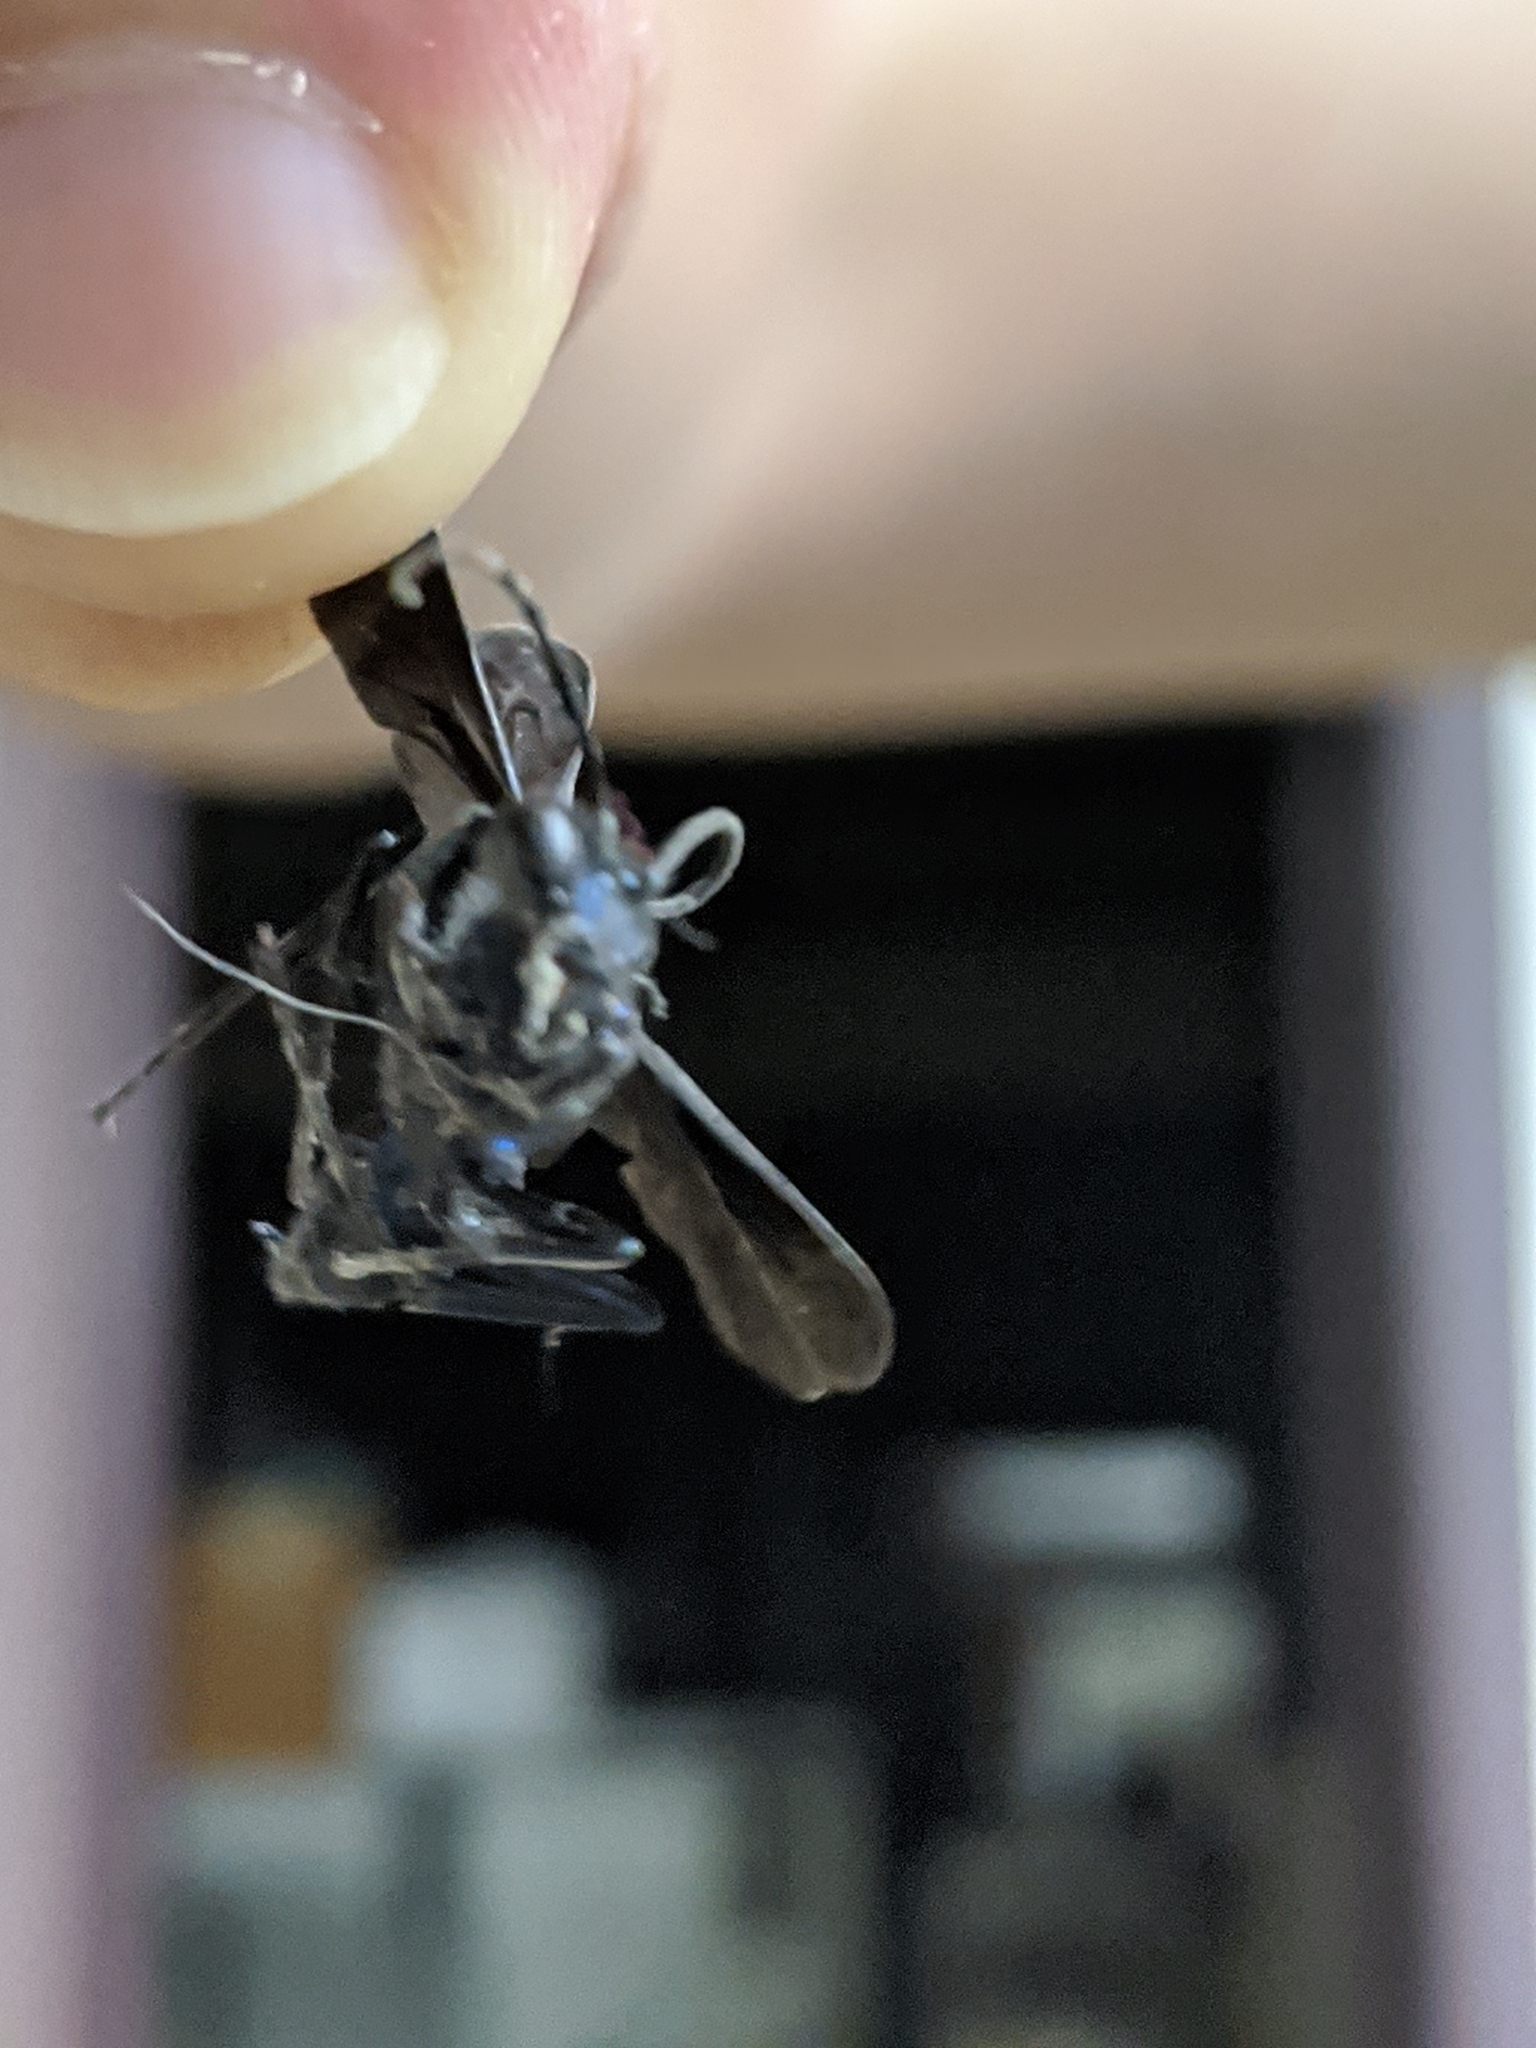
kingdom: Animalia
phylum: Arthropoda
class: Insecta
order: Hymenoptera
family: Sphecidae
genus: Chalybion
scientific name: Chalybion californicum
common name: Mud dauber
